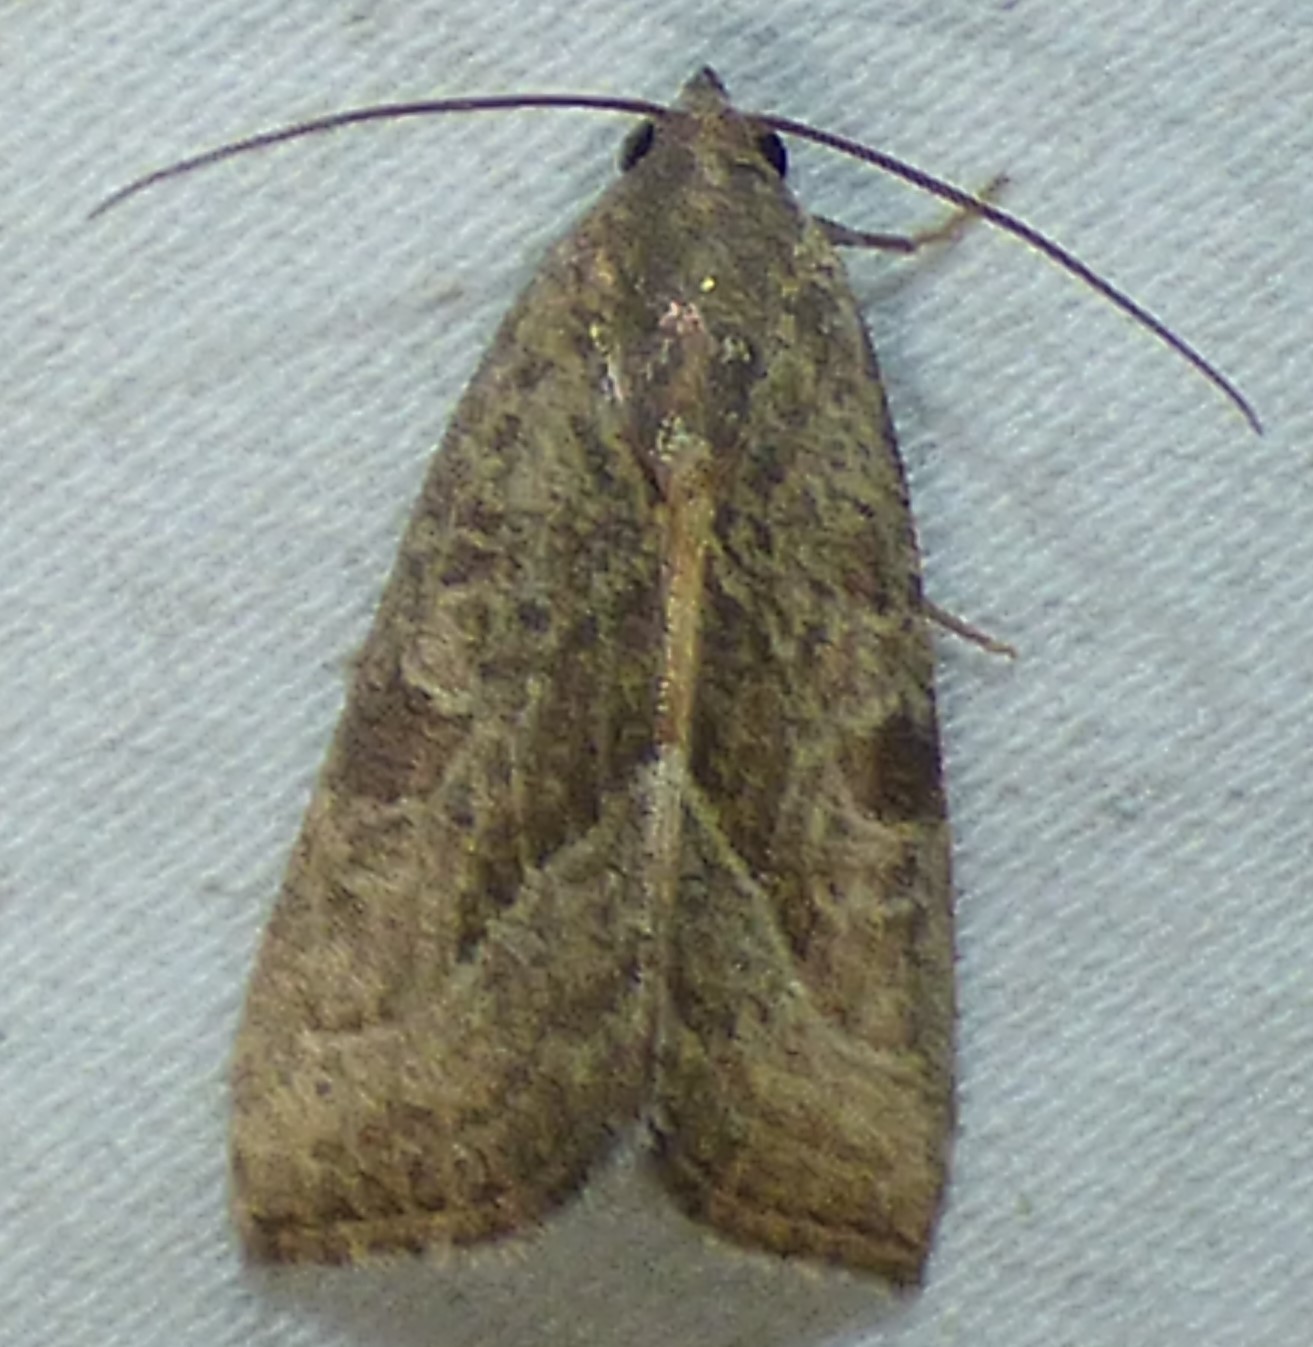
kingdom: Animalia
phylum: Arthropoda
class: Insecta
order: Lepidoptera
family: Noctuidae
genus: Galgula
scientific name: Galgula partita
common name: Wedgeling
